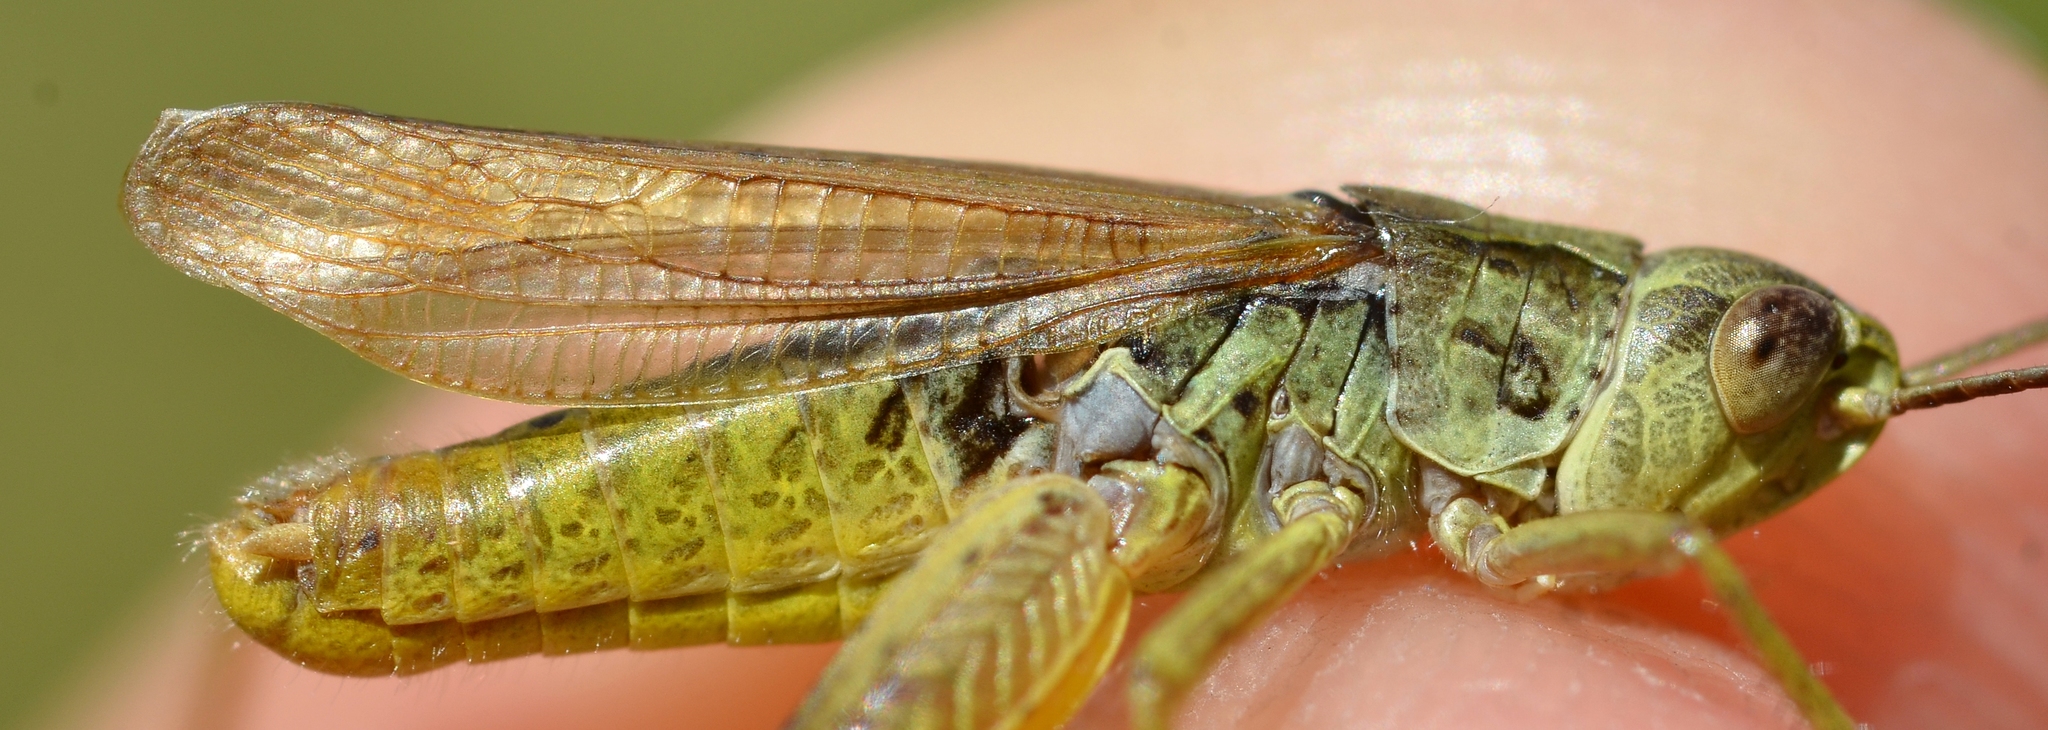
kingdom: Animalia
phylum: Arthropoda
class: Insecta
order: Orthoptera
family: Acrididae
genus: Chorthippus
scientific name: Chorthippus apricarius
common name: Upland field grasshopper
